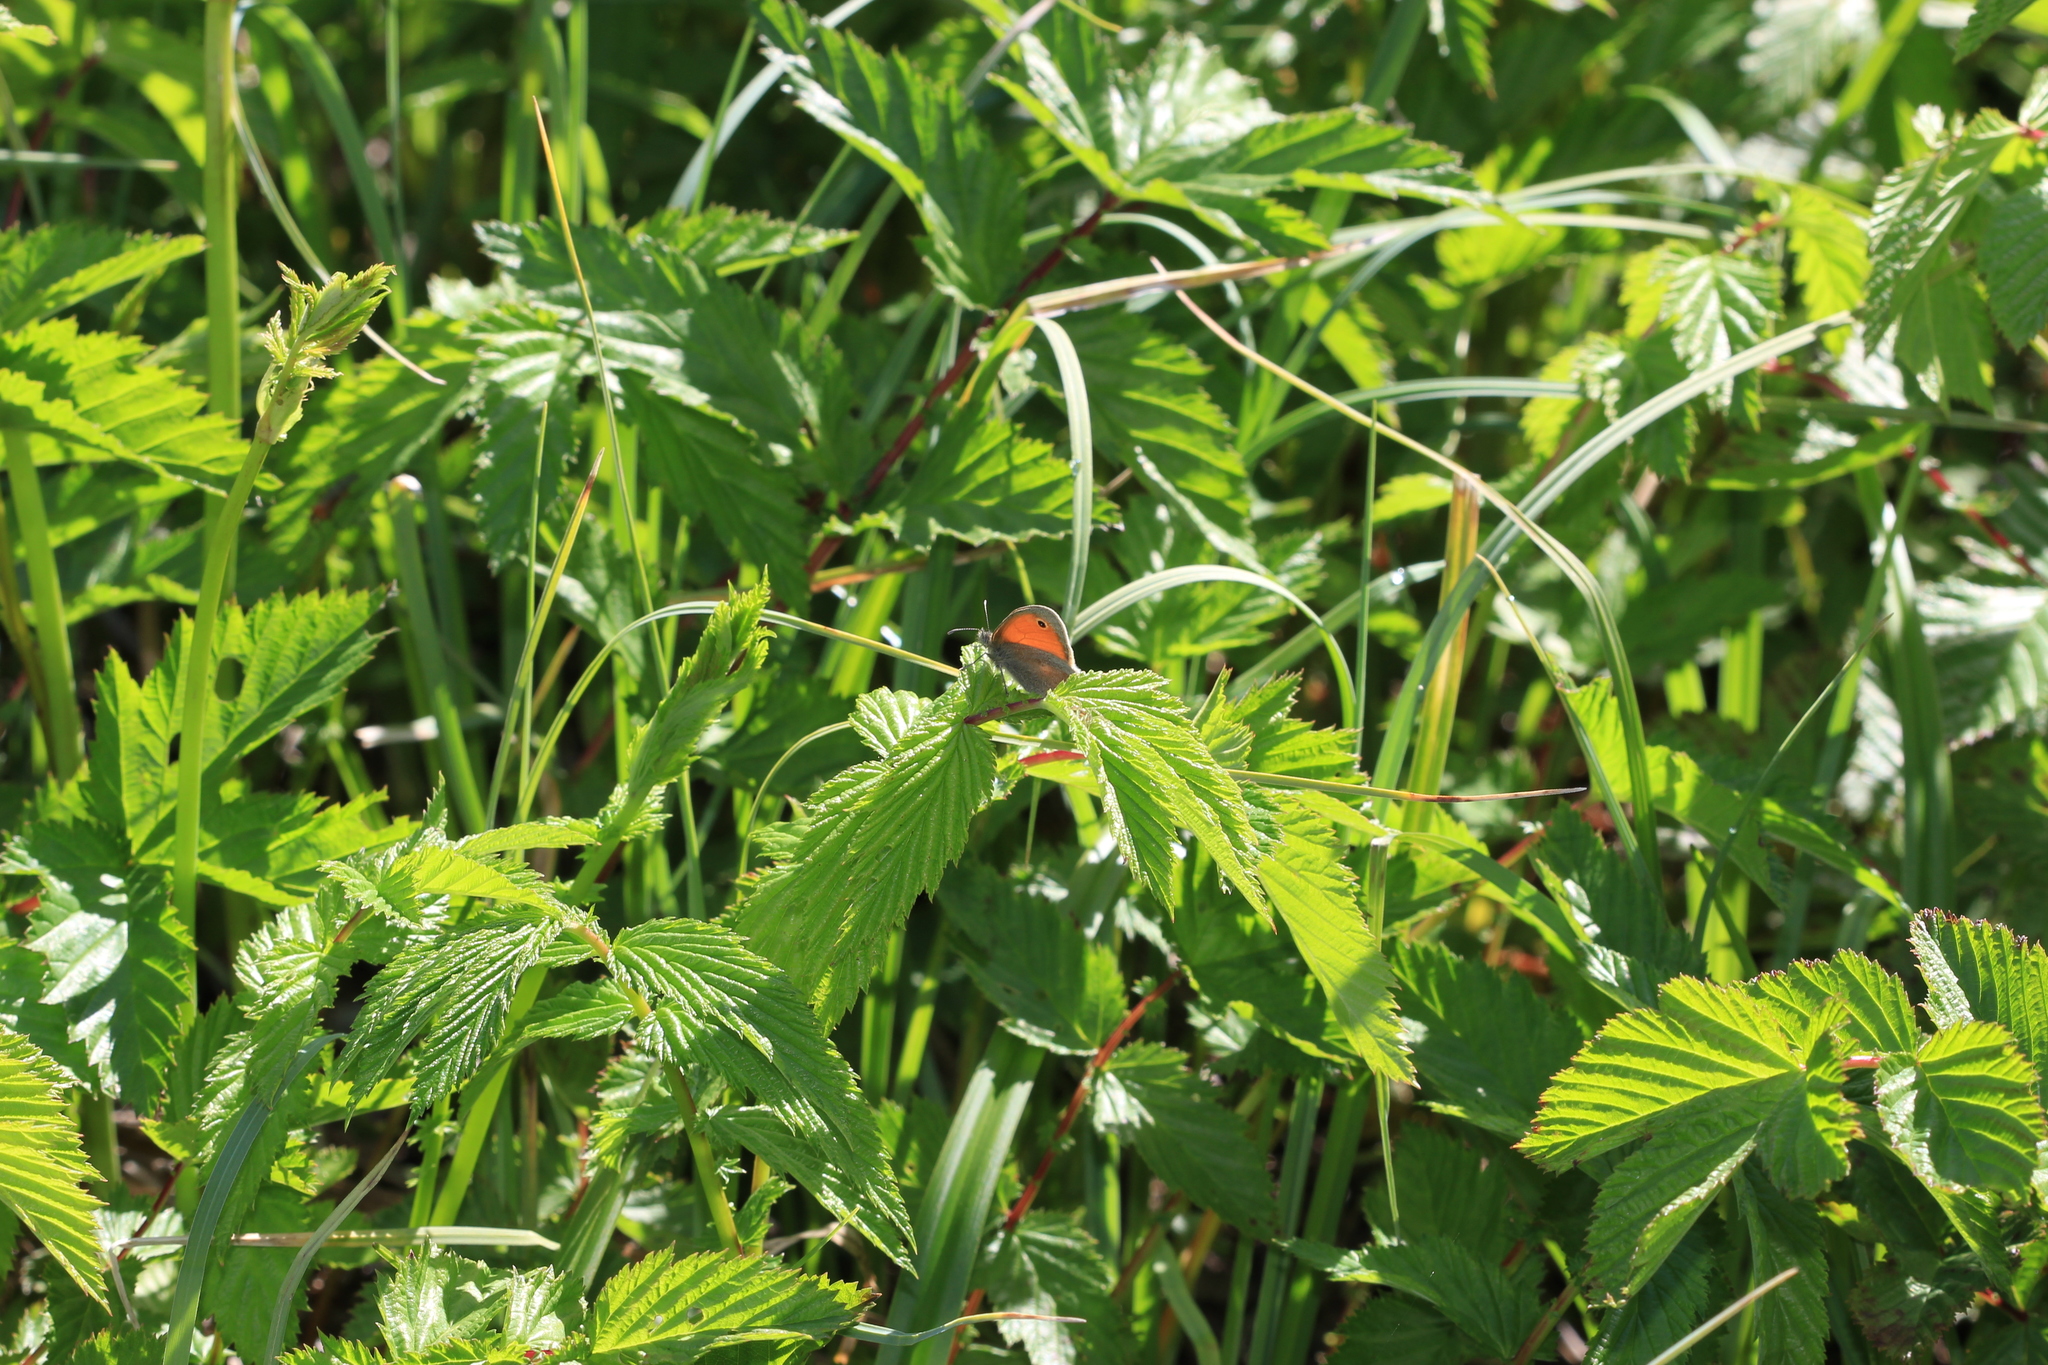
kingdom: Animalia
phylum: Arthropoda
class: Insecta
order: Lepidoptera
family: Nymphalidae
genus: Coenonympha
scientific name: Coenonympha pamphilus
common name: Small heath
